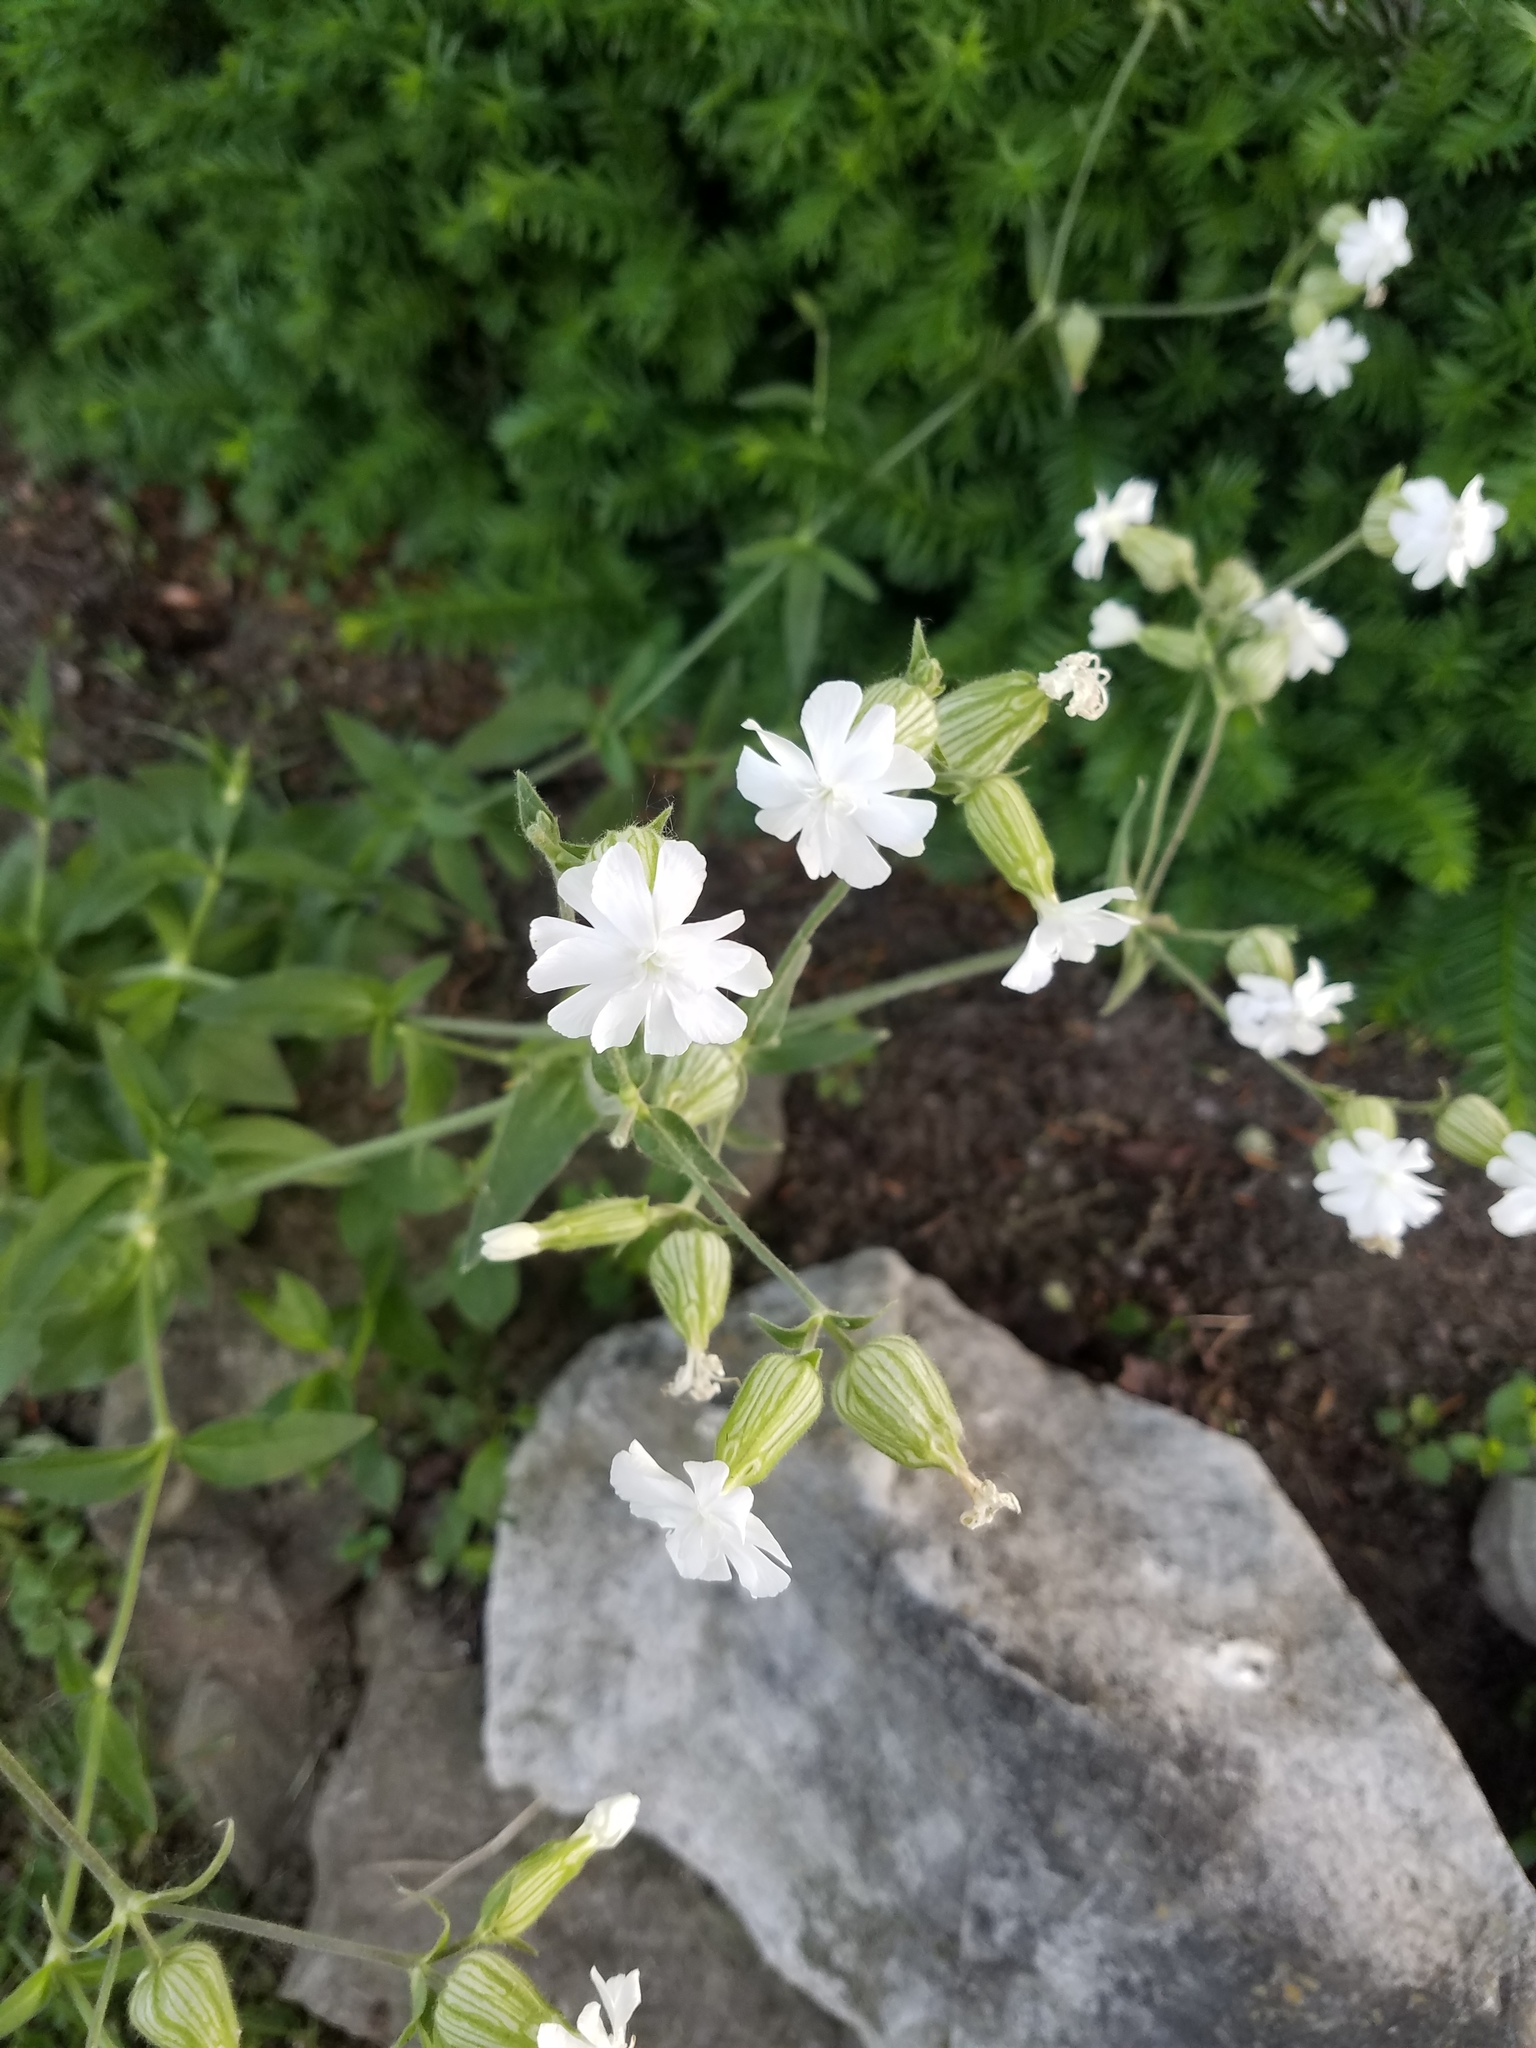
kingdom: Plantae
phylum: Tracheophyta
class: Magnoliopsida
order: Caryophyllales
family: Caryophyllaceae
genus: Silene
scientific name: Silene latifolia
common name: White campion
